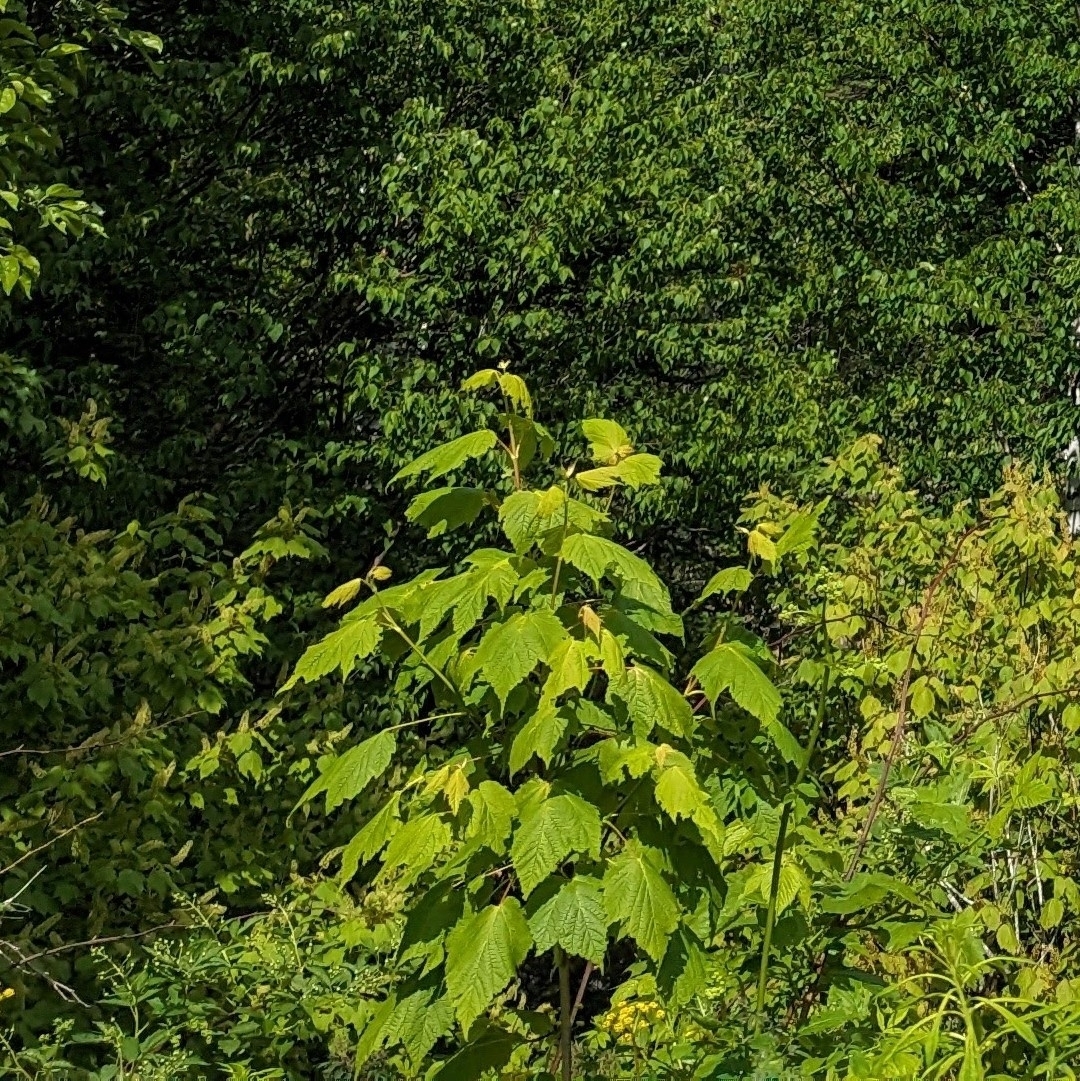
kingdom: Plantae
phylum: Tracheophyta
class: Magnoliopsida
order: Sapindales
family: Sapindaceae
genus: Acer
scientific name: Acer spicatum
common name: Mountain maple
